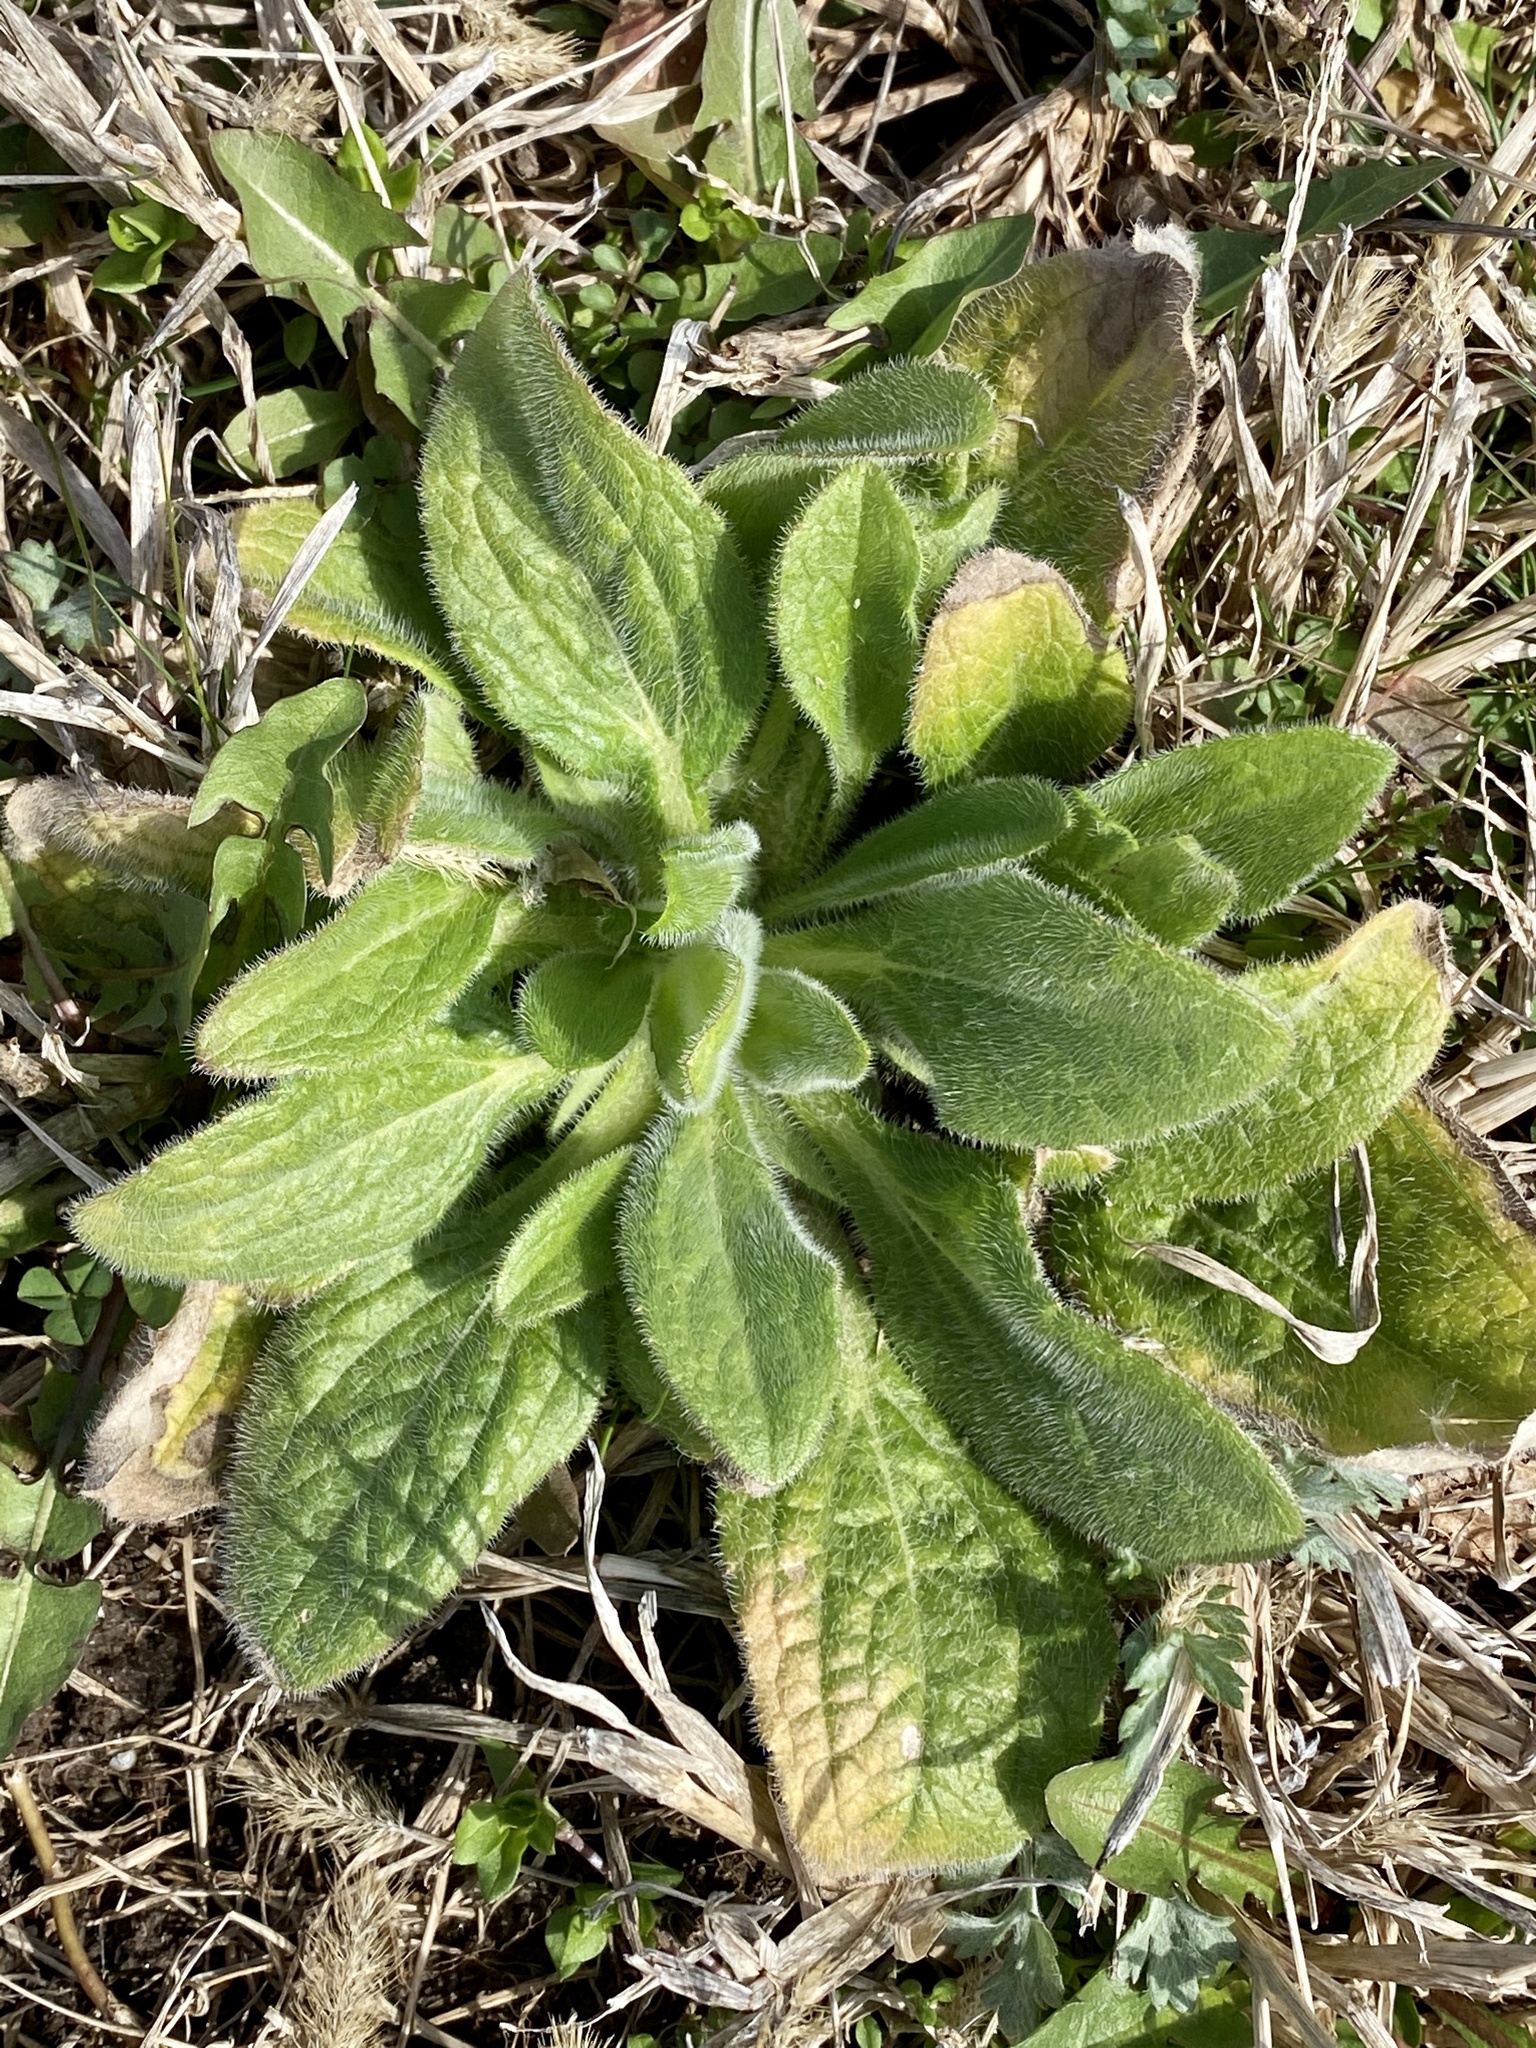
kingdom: Plantae
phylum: Tracheophyta
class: Magnoliopsida
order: Asterales
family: Asteraceae
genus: Rudbeckia
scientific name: Rudbeckia hirta
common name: Black-eyed-susan
